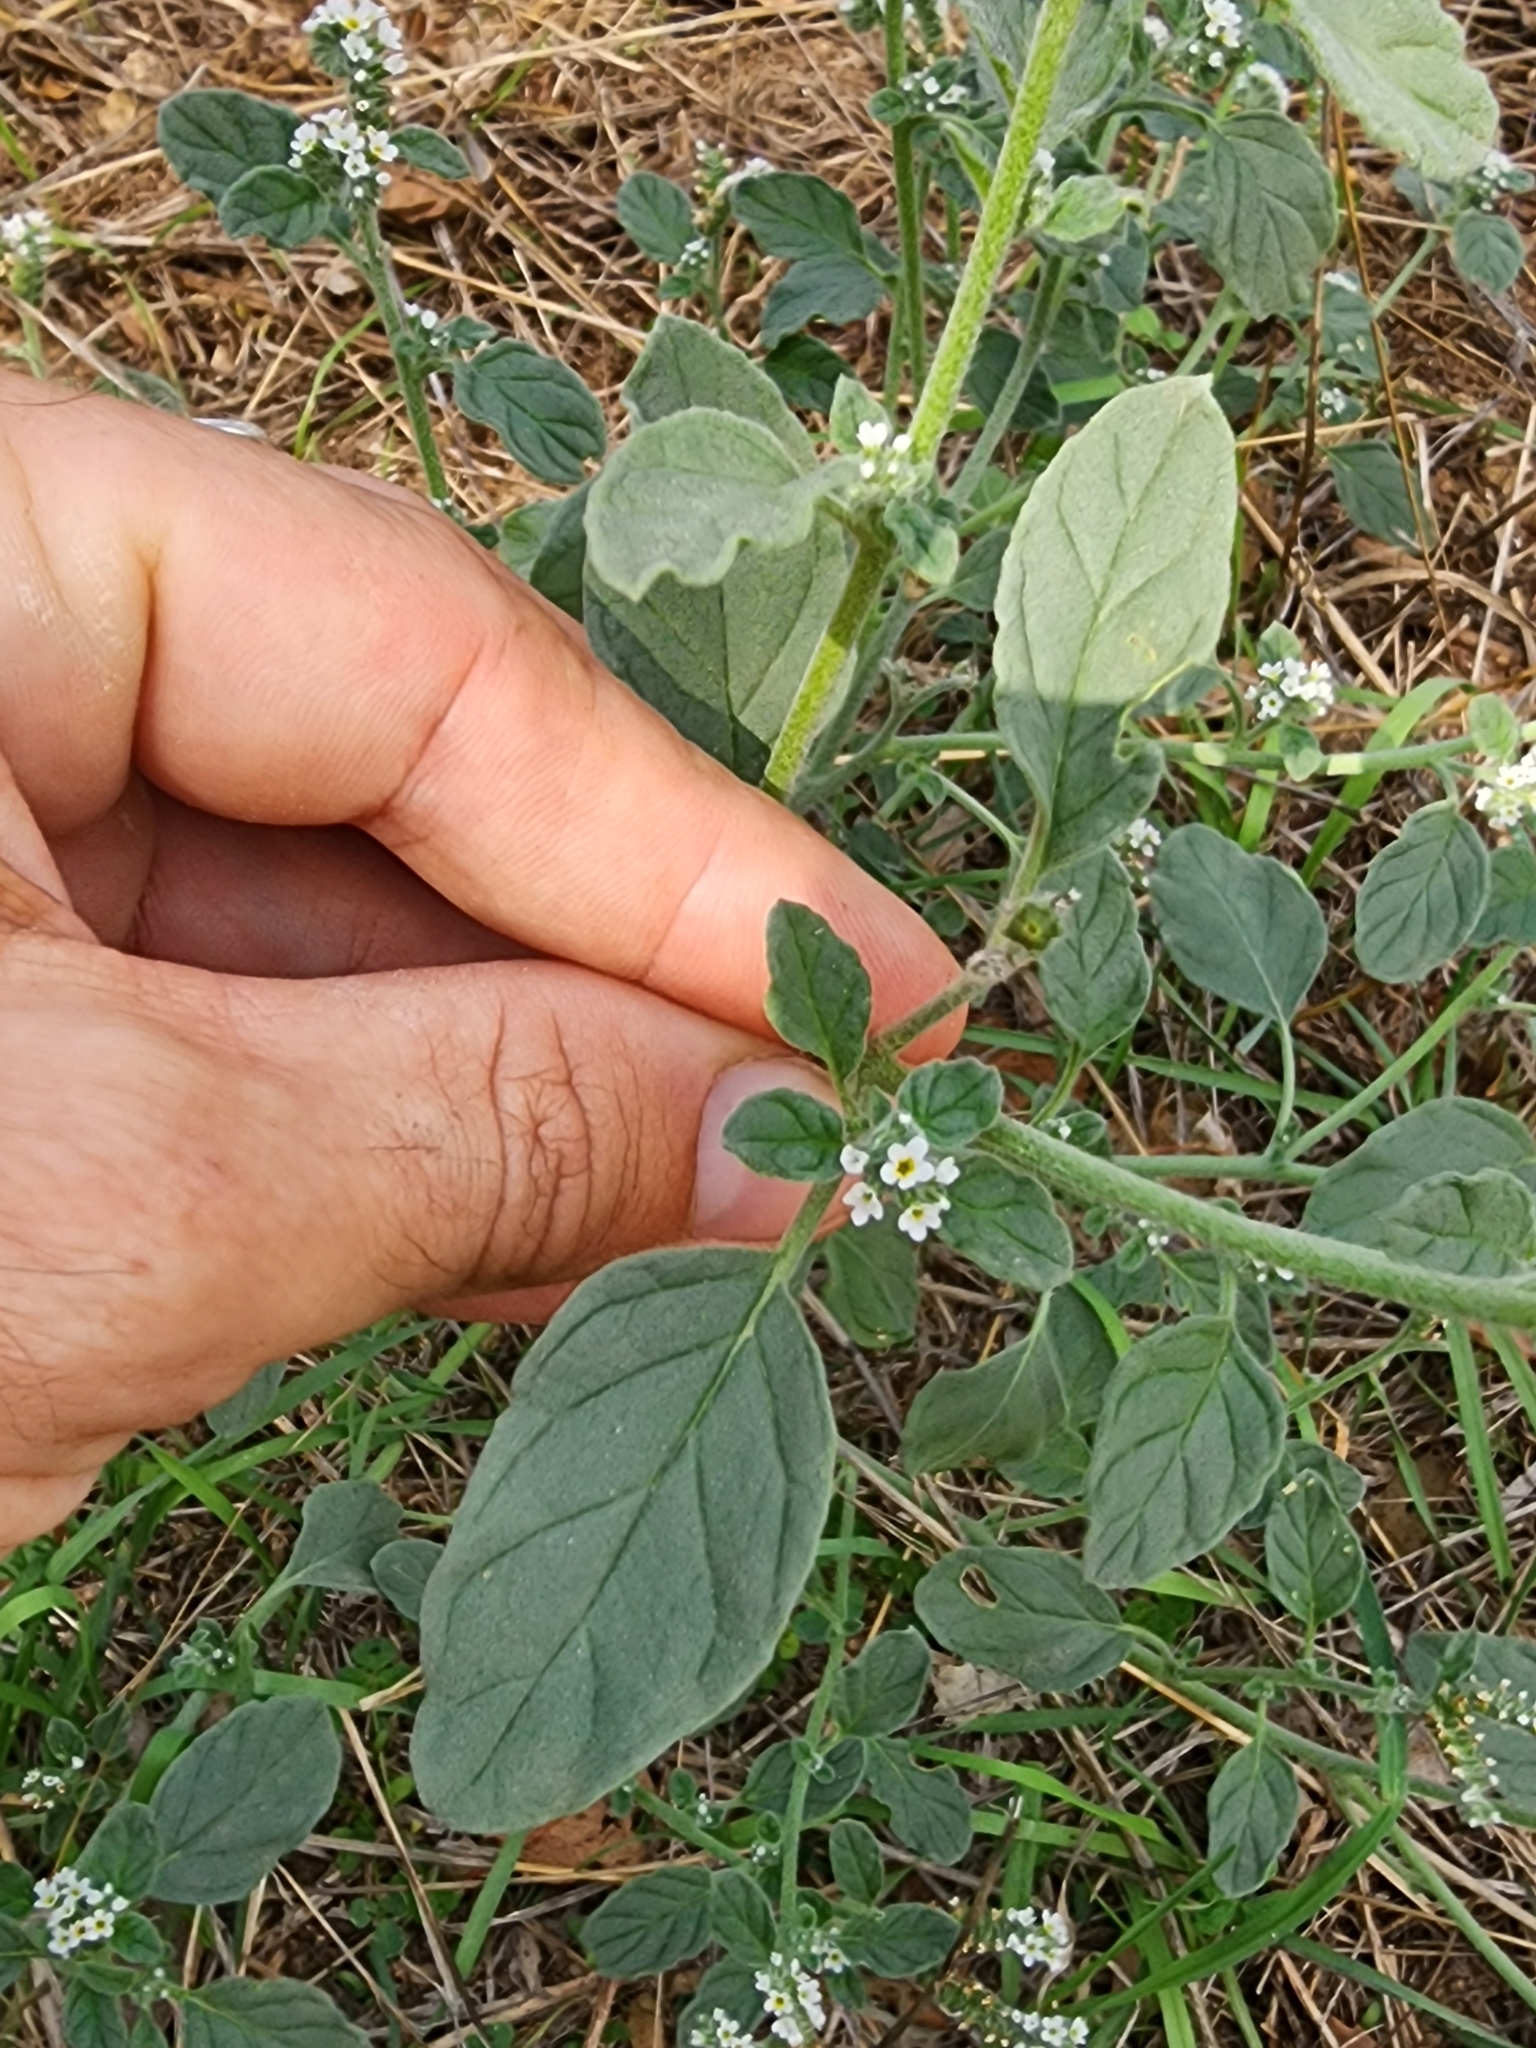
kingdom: Plantae
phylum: Tracheophyta
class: Magnoliopsida
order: Boraginales
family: Heliotropiaceae
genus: Heliotropium
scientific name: Heliotropium europaeum
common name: European heliotrope
